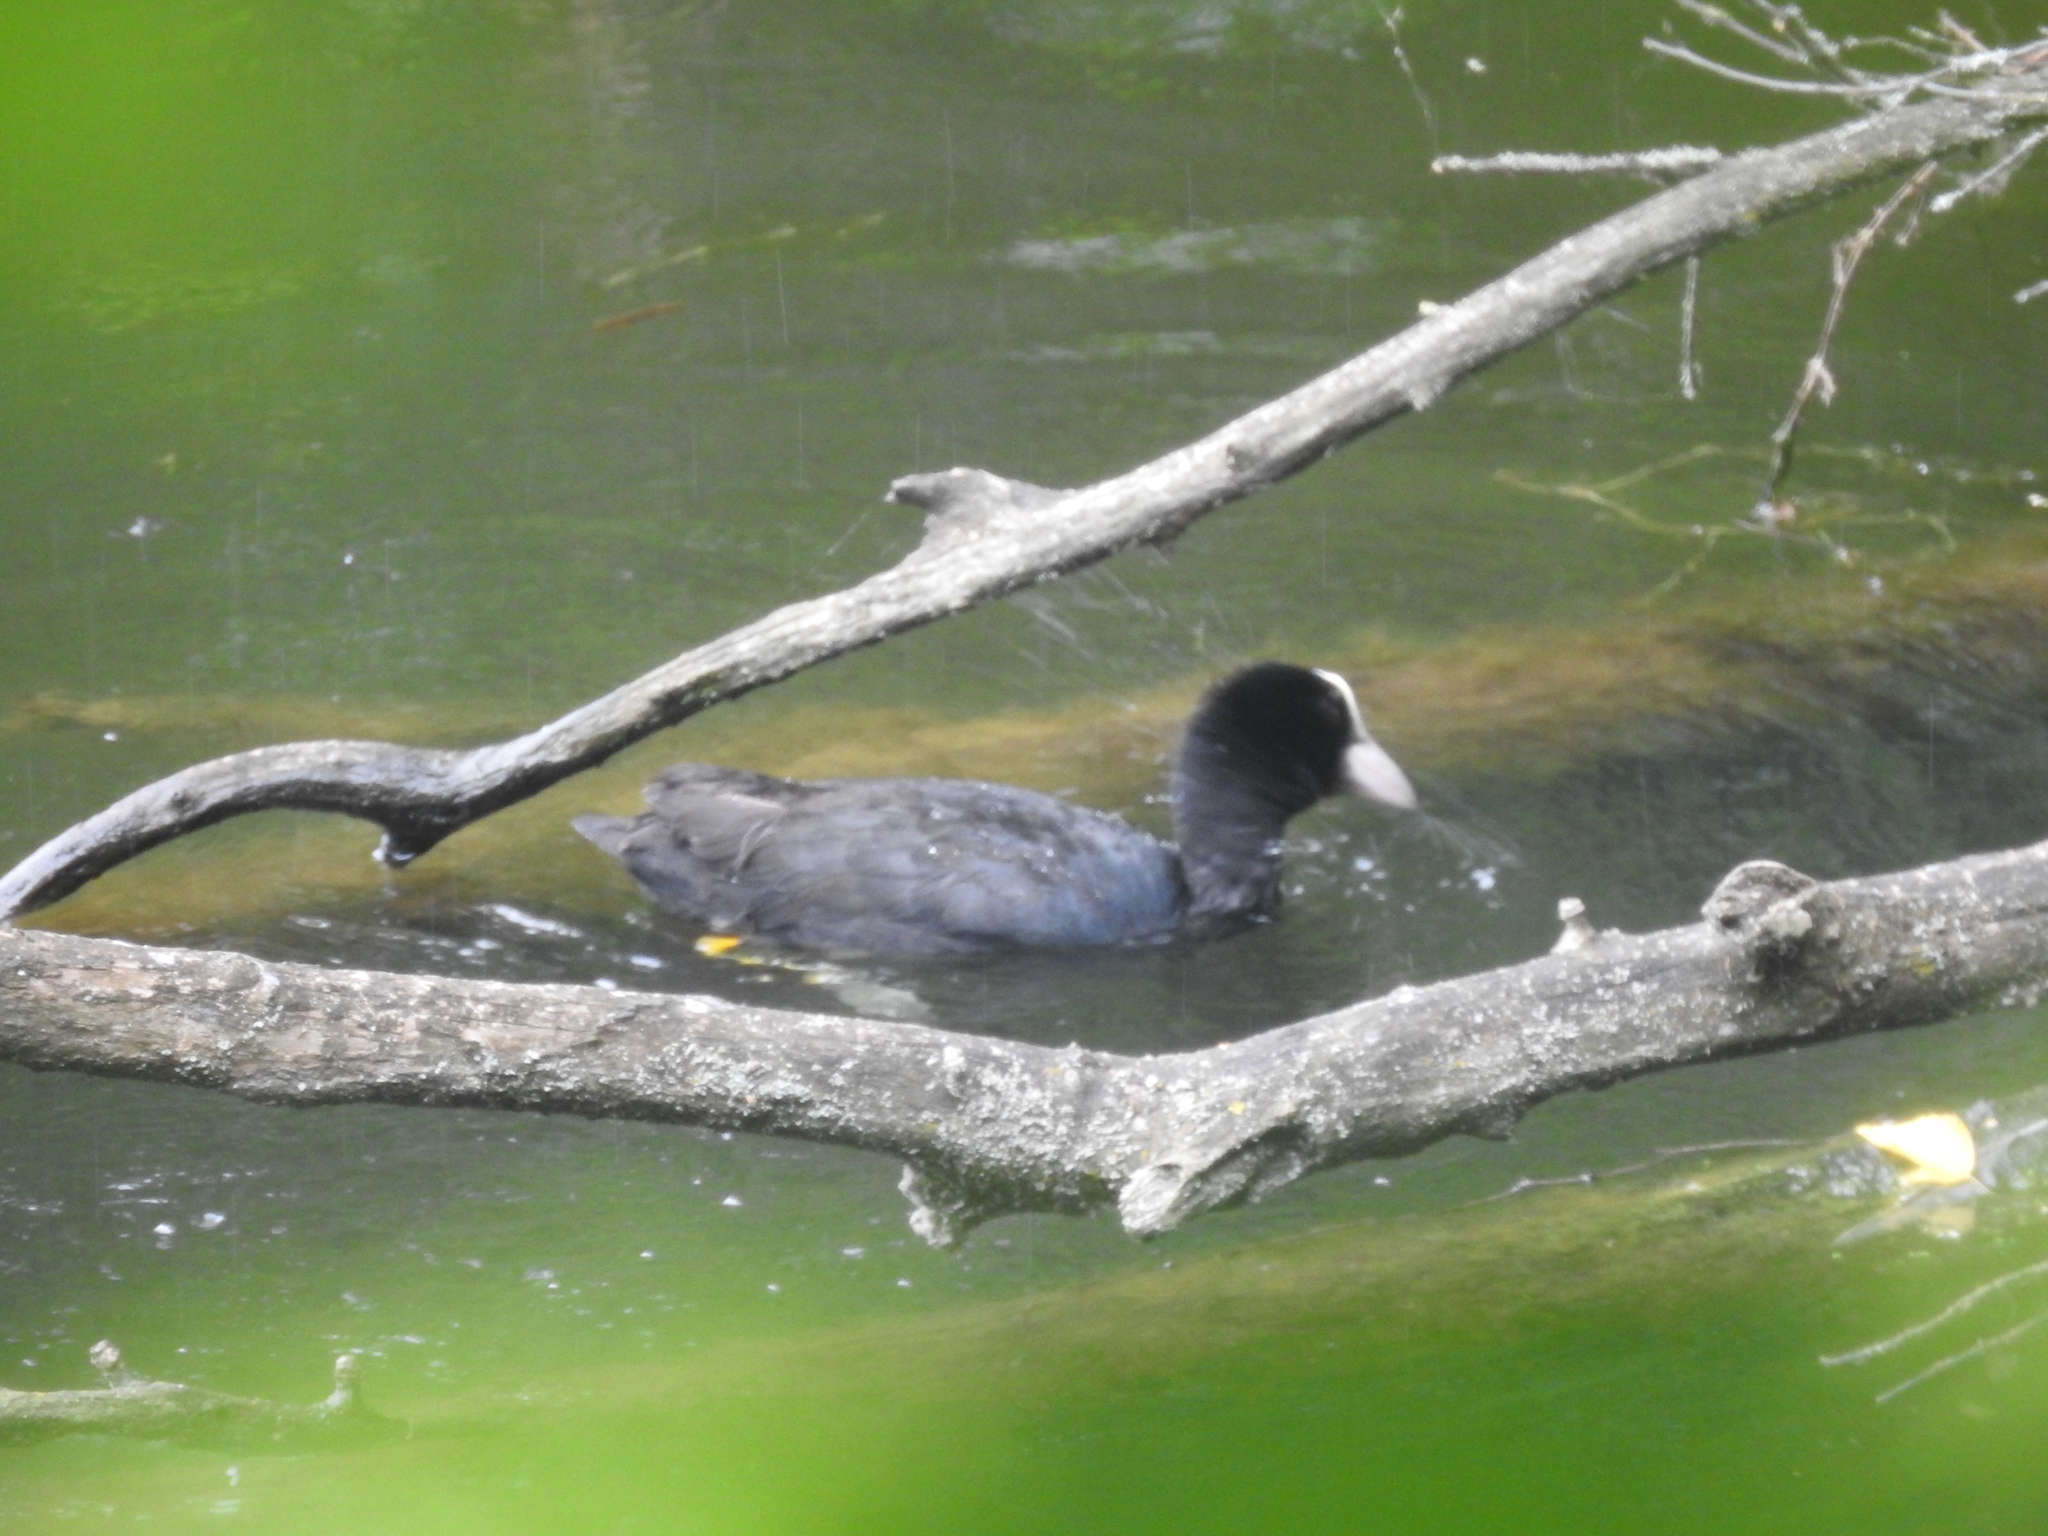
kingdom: Animalia
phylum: Chordata
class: Aves
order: Gruiformes
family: Rallidae
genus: Fulica
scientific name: Fulica atra
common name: Eurasian coot
